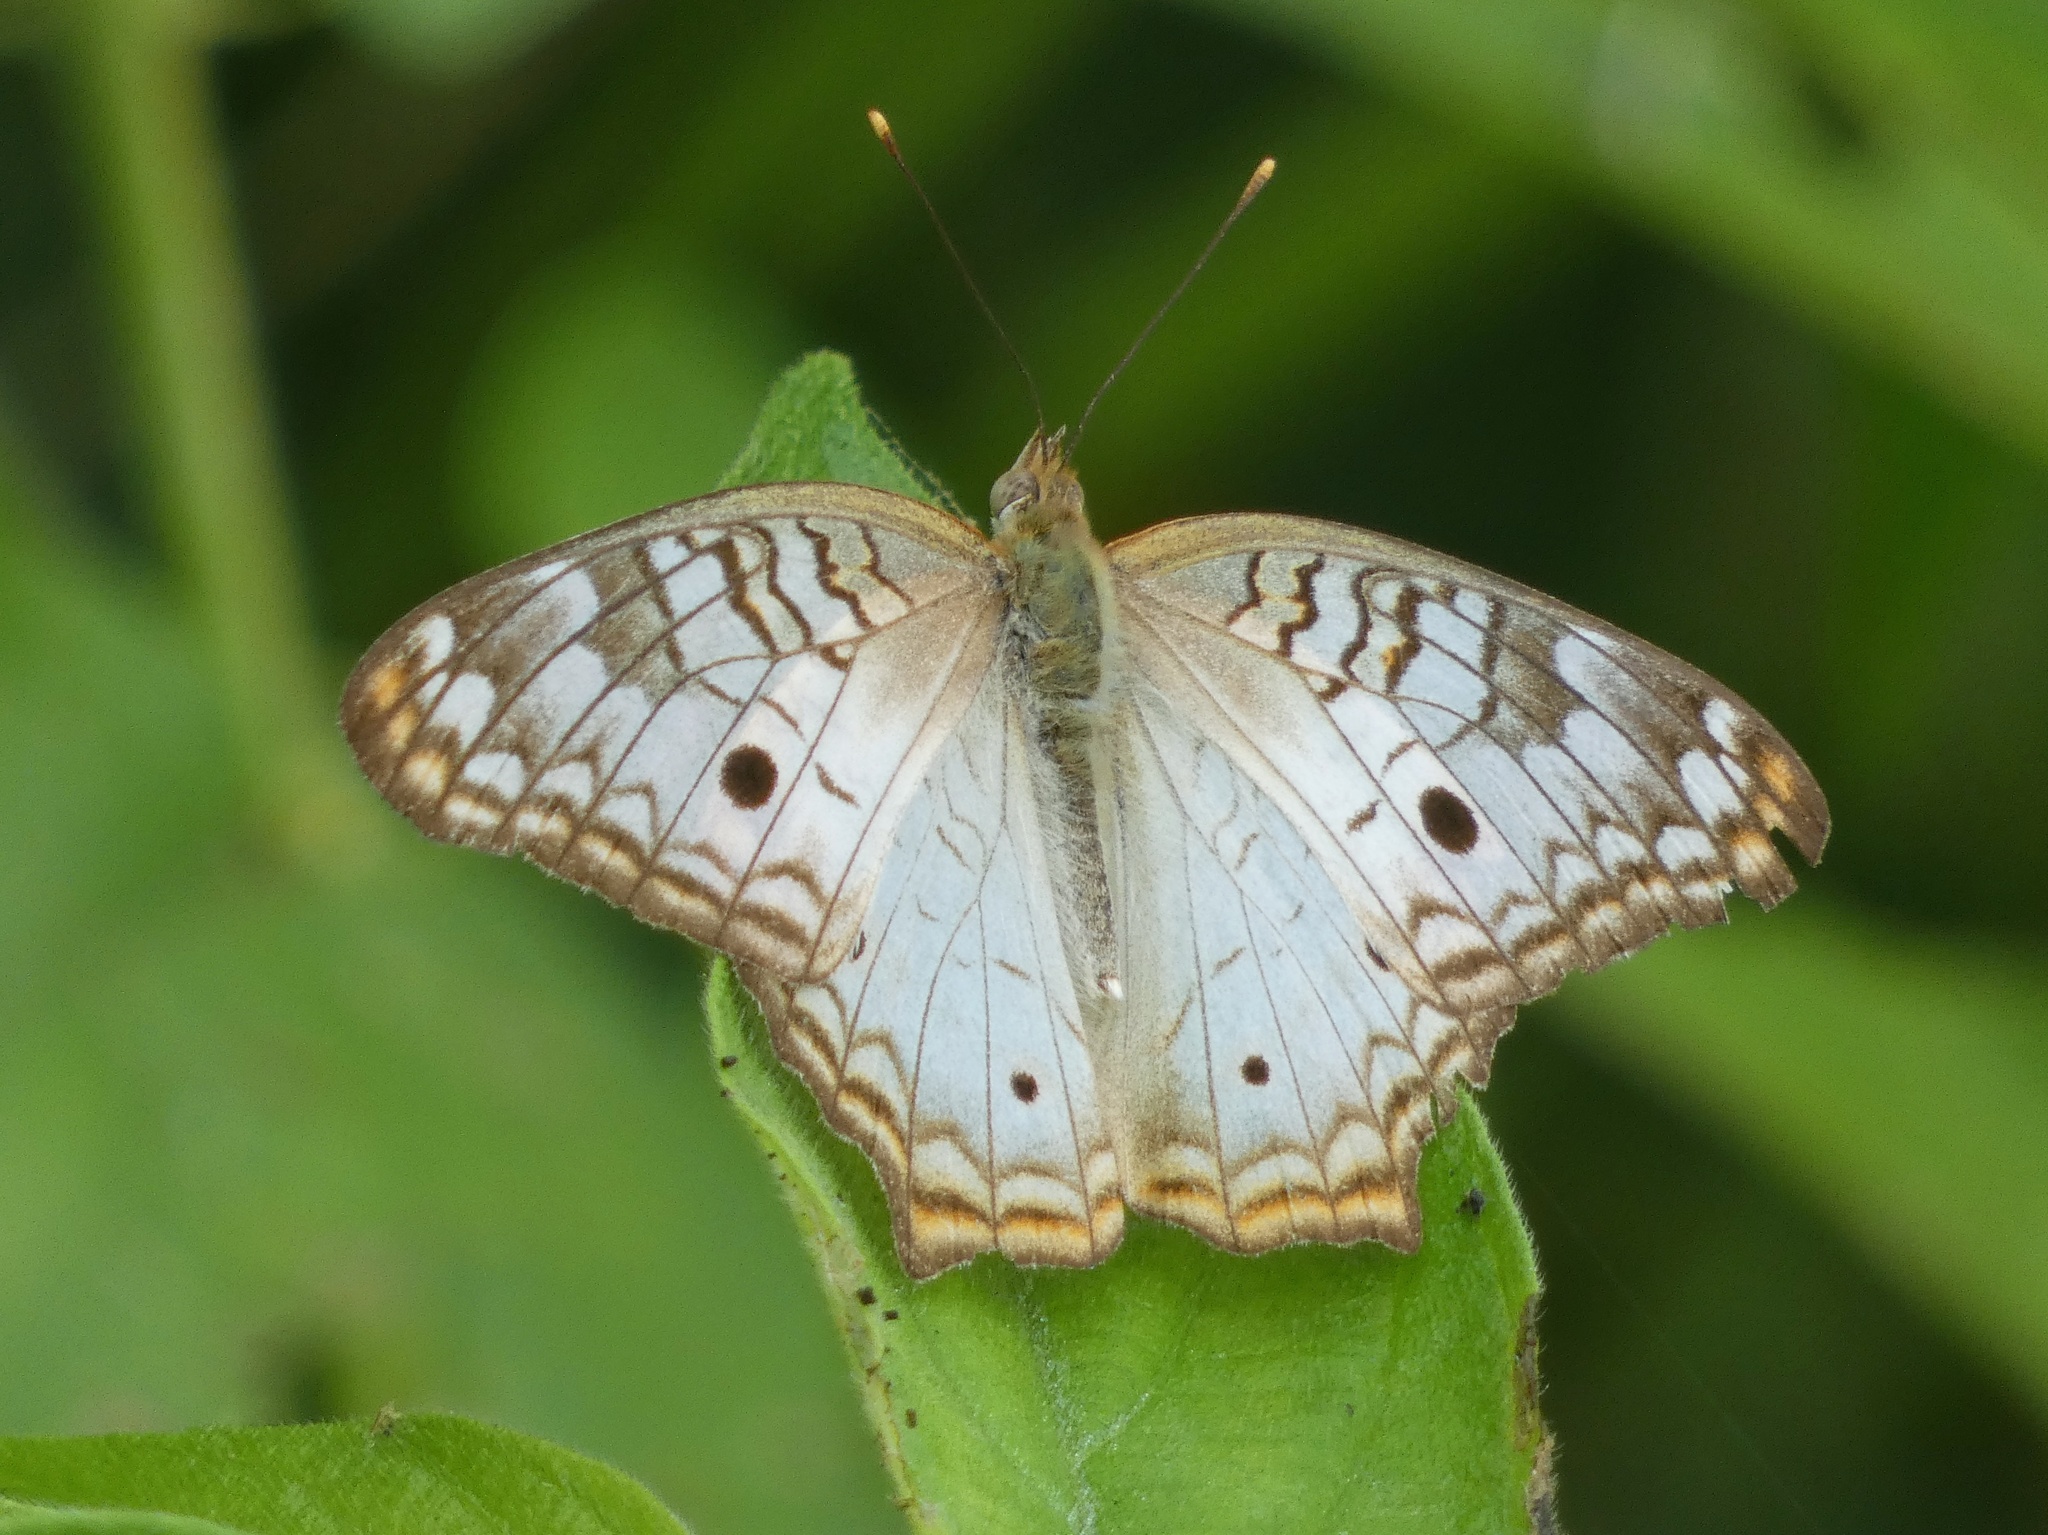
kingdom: Animalia
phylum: Arthropoda
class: Insecta
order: Lepidoptera
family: Nymphalidae
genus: Anartia
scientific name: Anartia jatrophae
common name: White peacock
